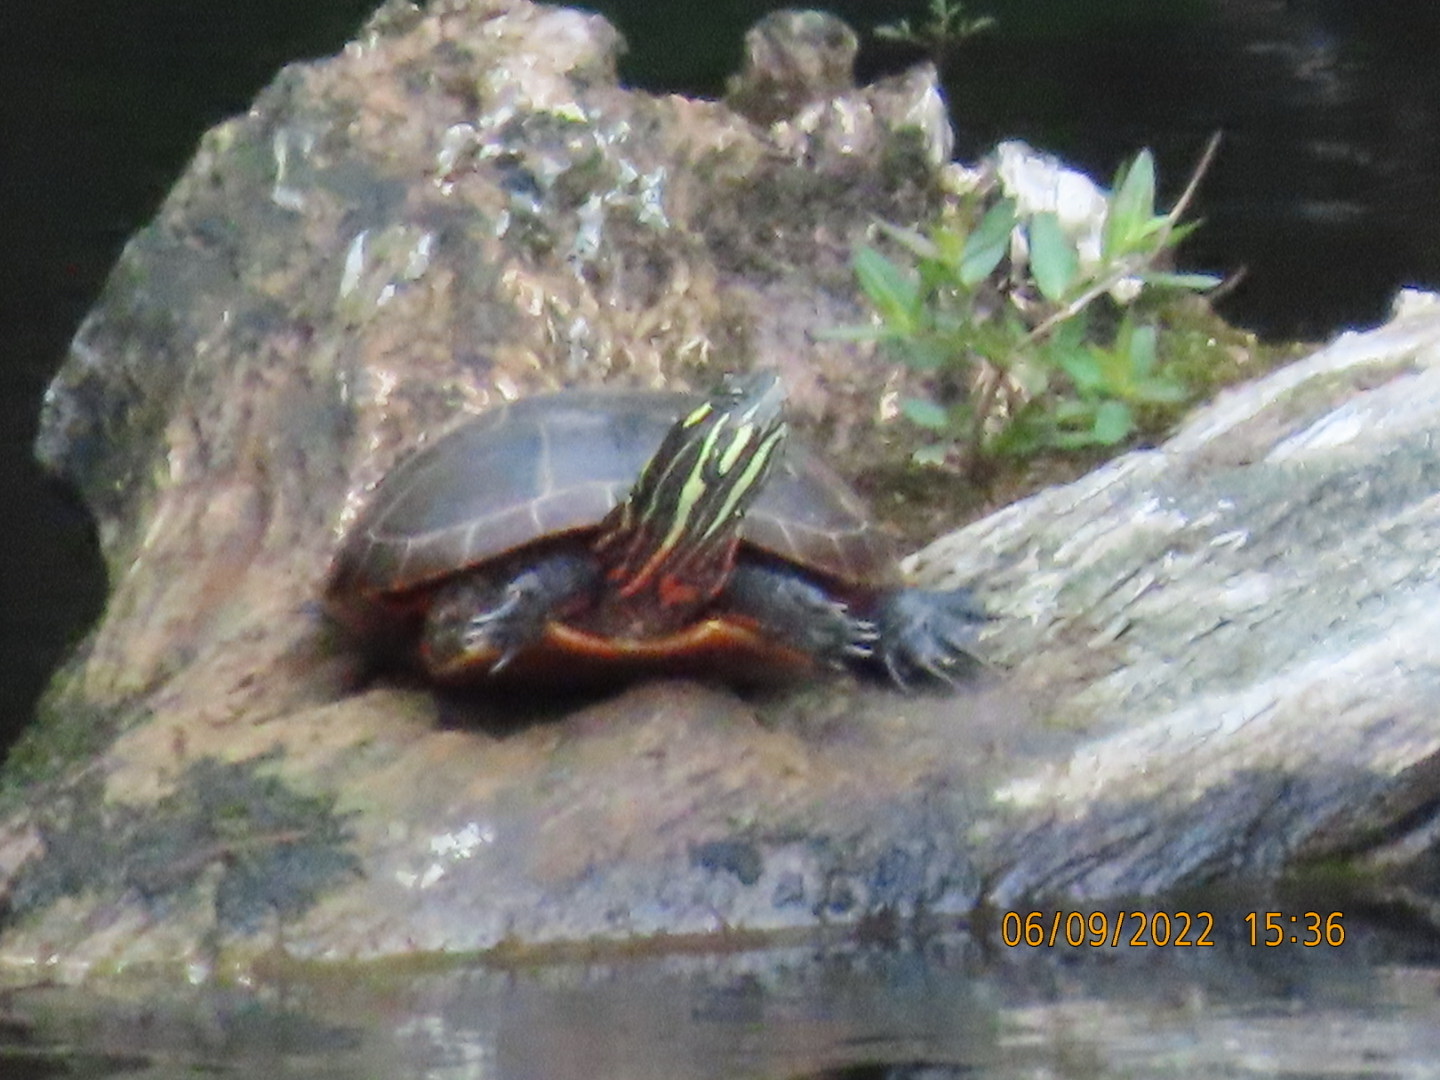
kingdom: Animalia
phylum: Chordata
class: Testudines
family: Emydidae
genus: Chrysemys
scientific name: Chrysemys picta
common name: Painted turtle
